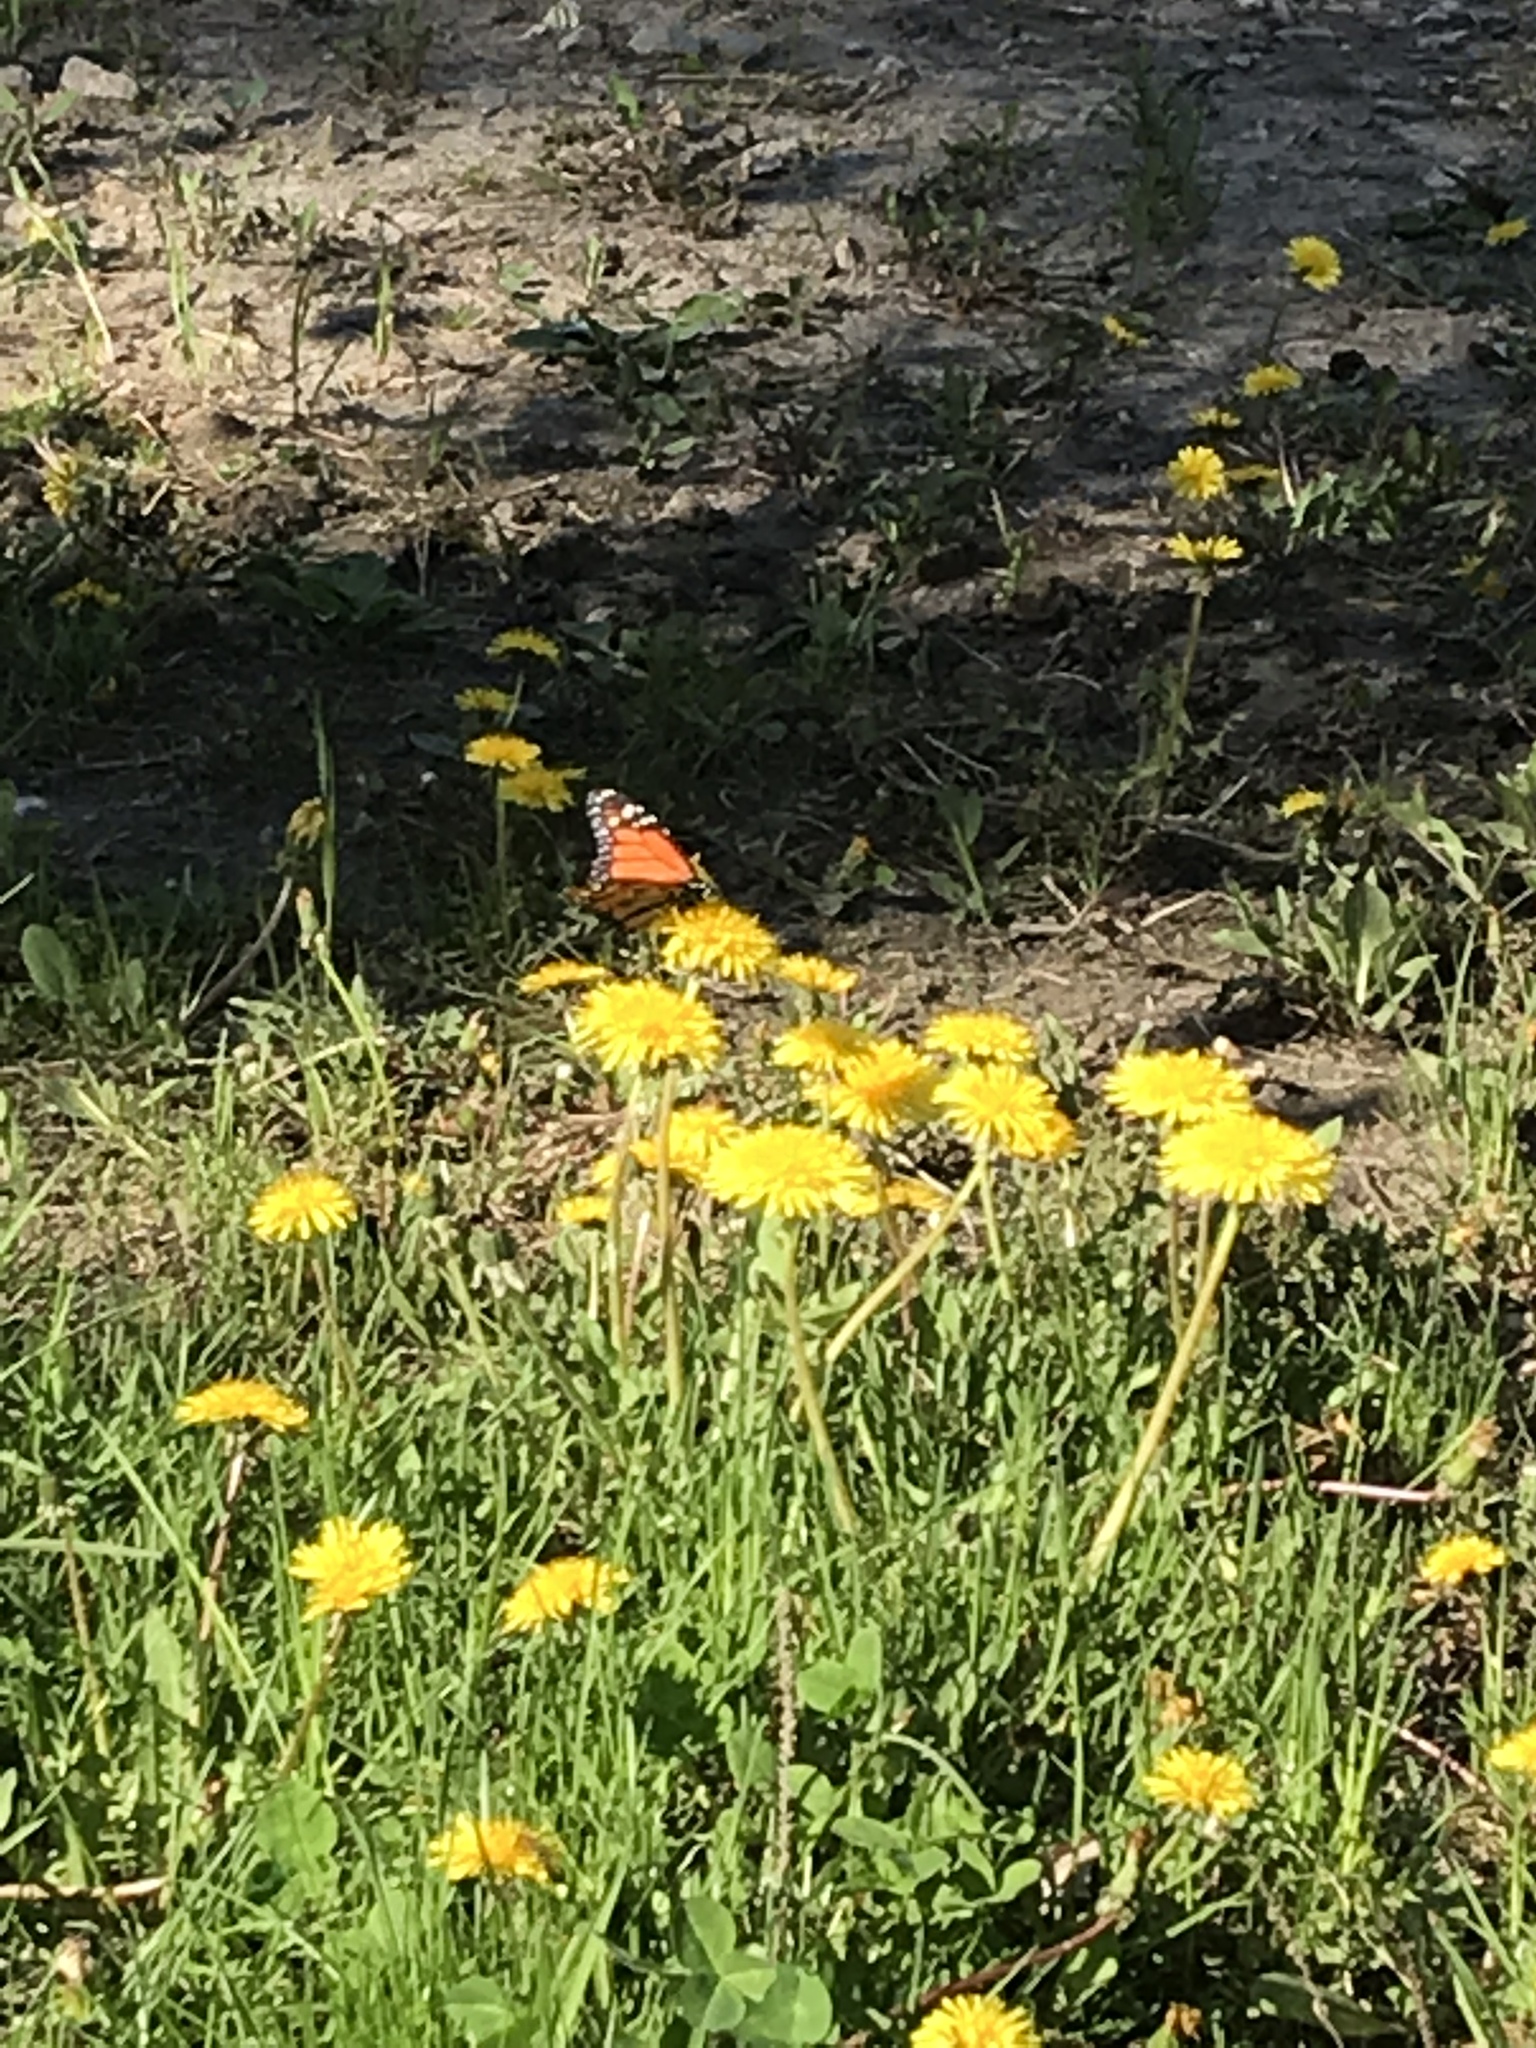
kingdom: Animalia
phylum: Arthropoda
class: Insecta
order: Lepidoptera
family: Nymphalidae
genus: Danaus
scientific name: Danaus plexippus
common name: Monarch
